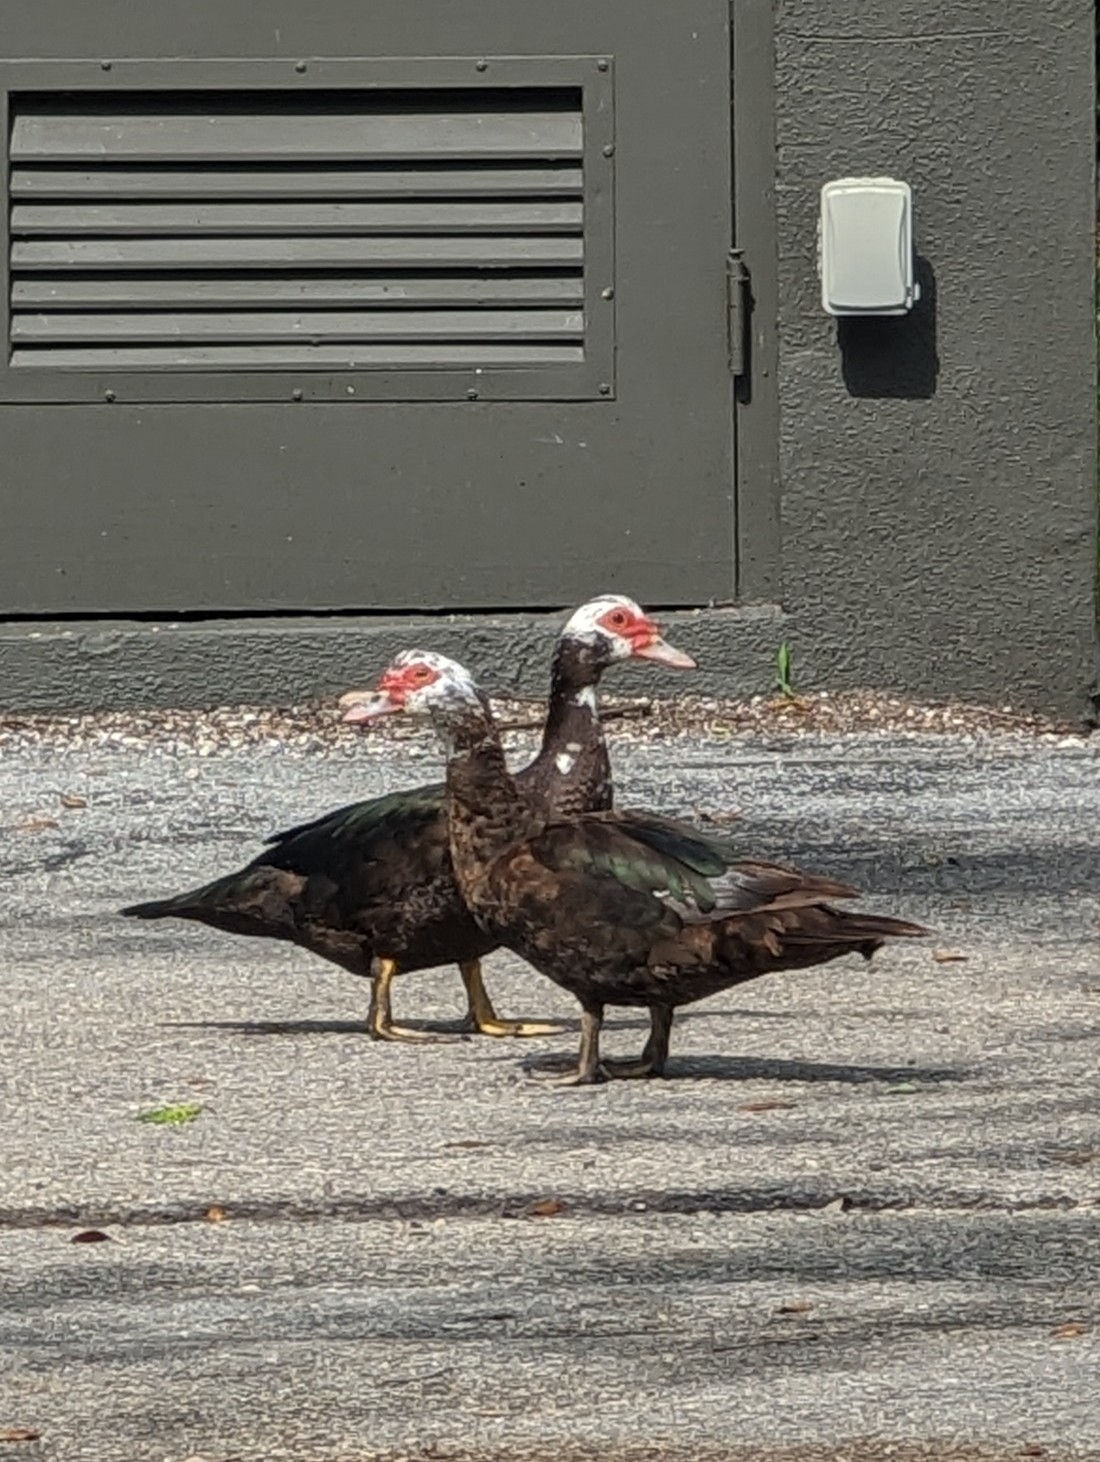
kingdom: Animalia
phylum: Chordata
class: Aves
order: Anseriformes
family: Anatidae
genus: Cairina
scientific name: Cairina moschata
